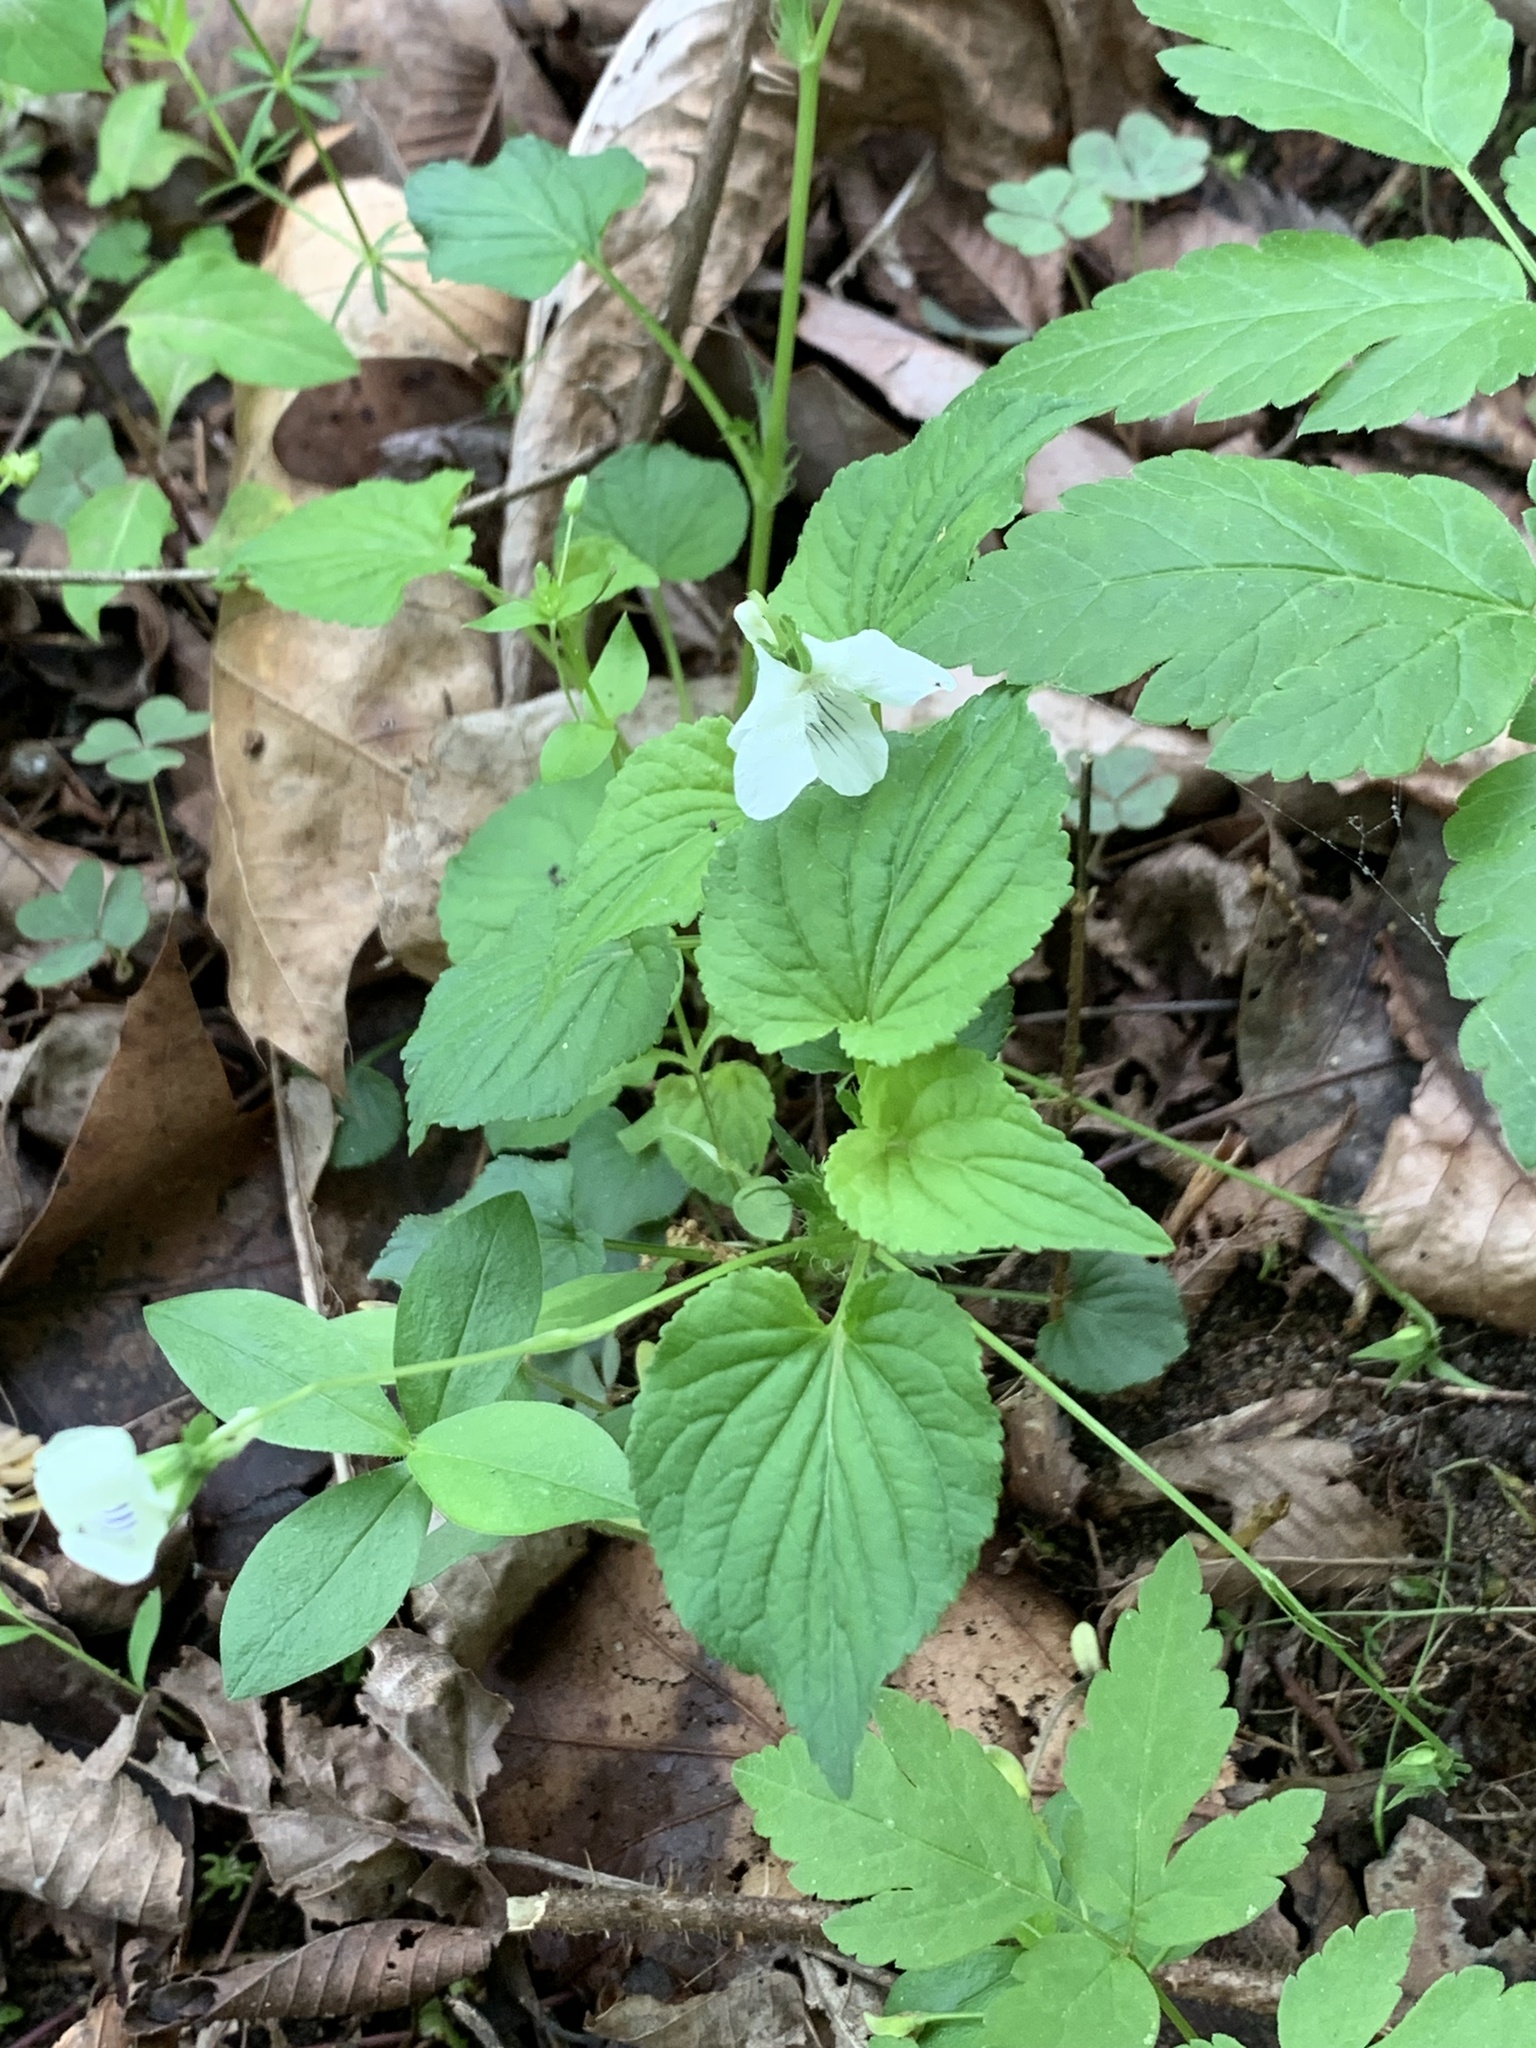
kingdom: Plantae
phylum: Tracheophyta
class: Magnoliopsida
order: Malpighiales
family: Violaceae
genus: Viola
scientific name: Viola striata
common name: Cream violet
